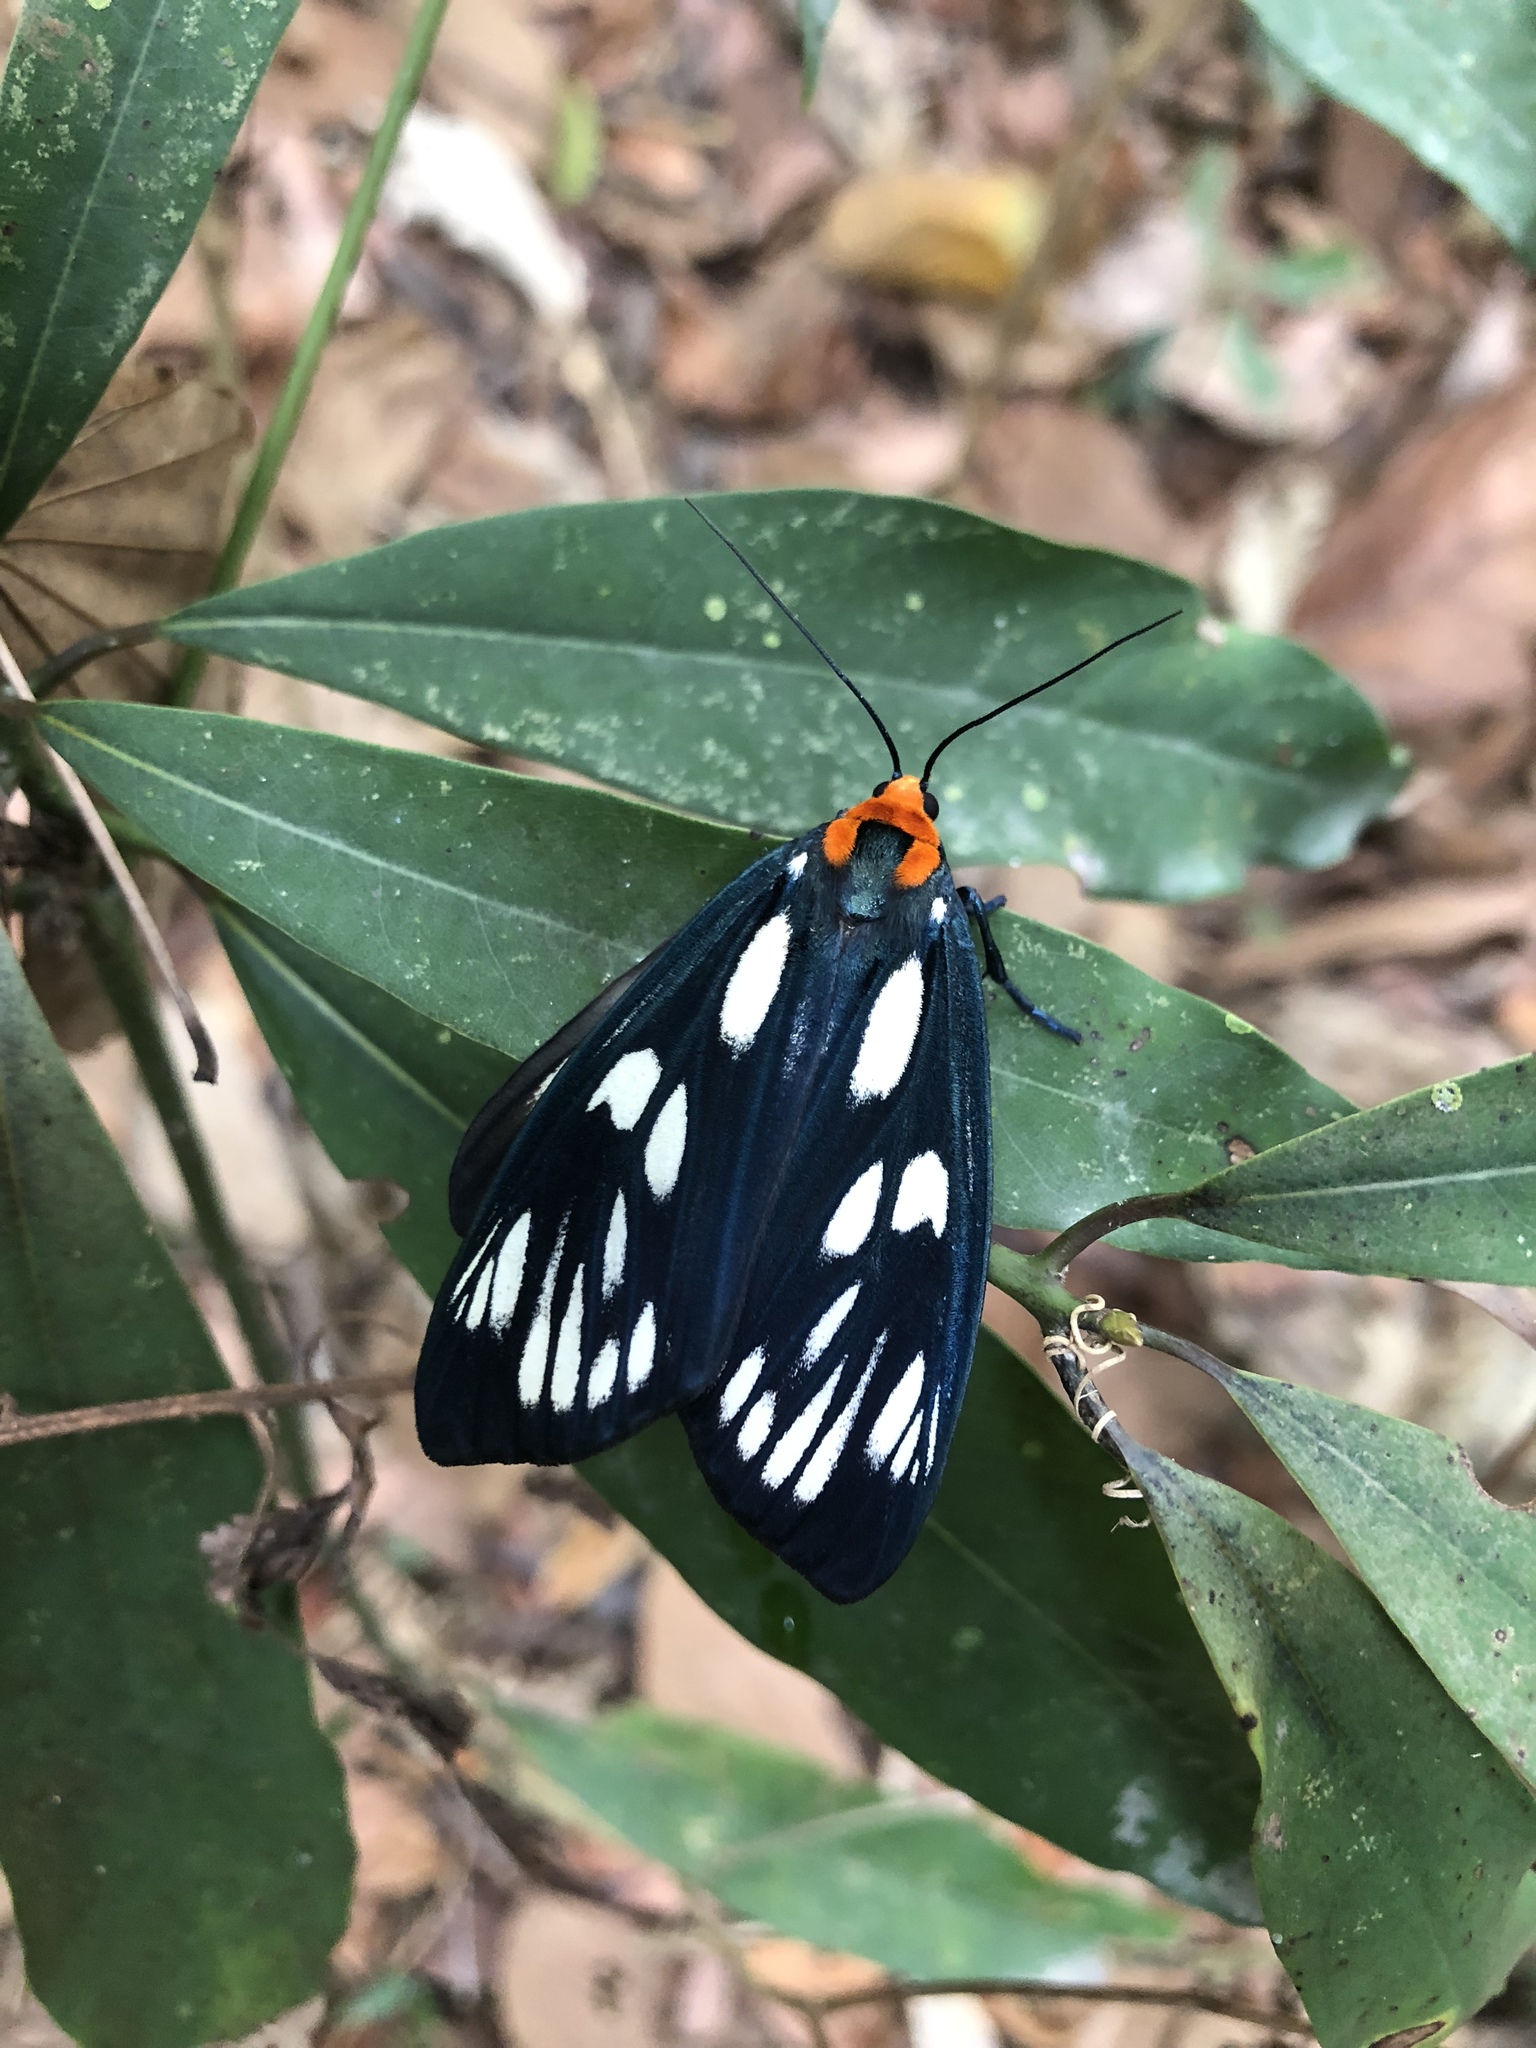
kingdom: Animalia
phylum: Arthropoda
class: Insecta
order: Lepidoptera
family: Erebidae
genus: Macrobrochis
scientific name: Macrobrochis gigas
